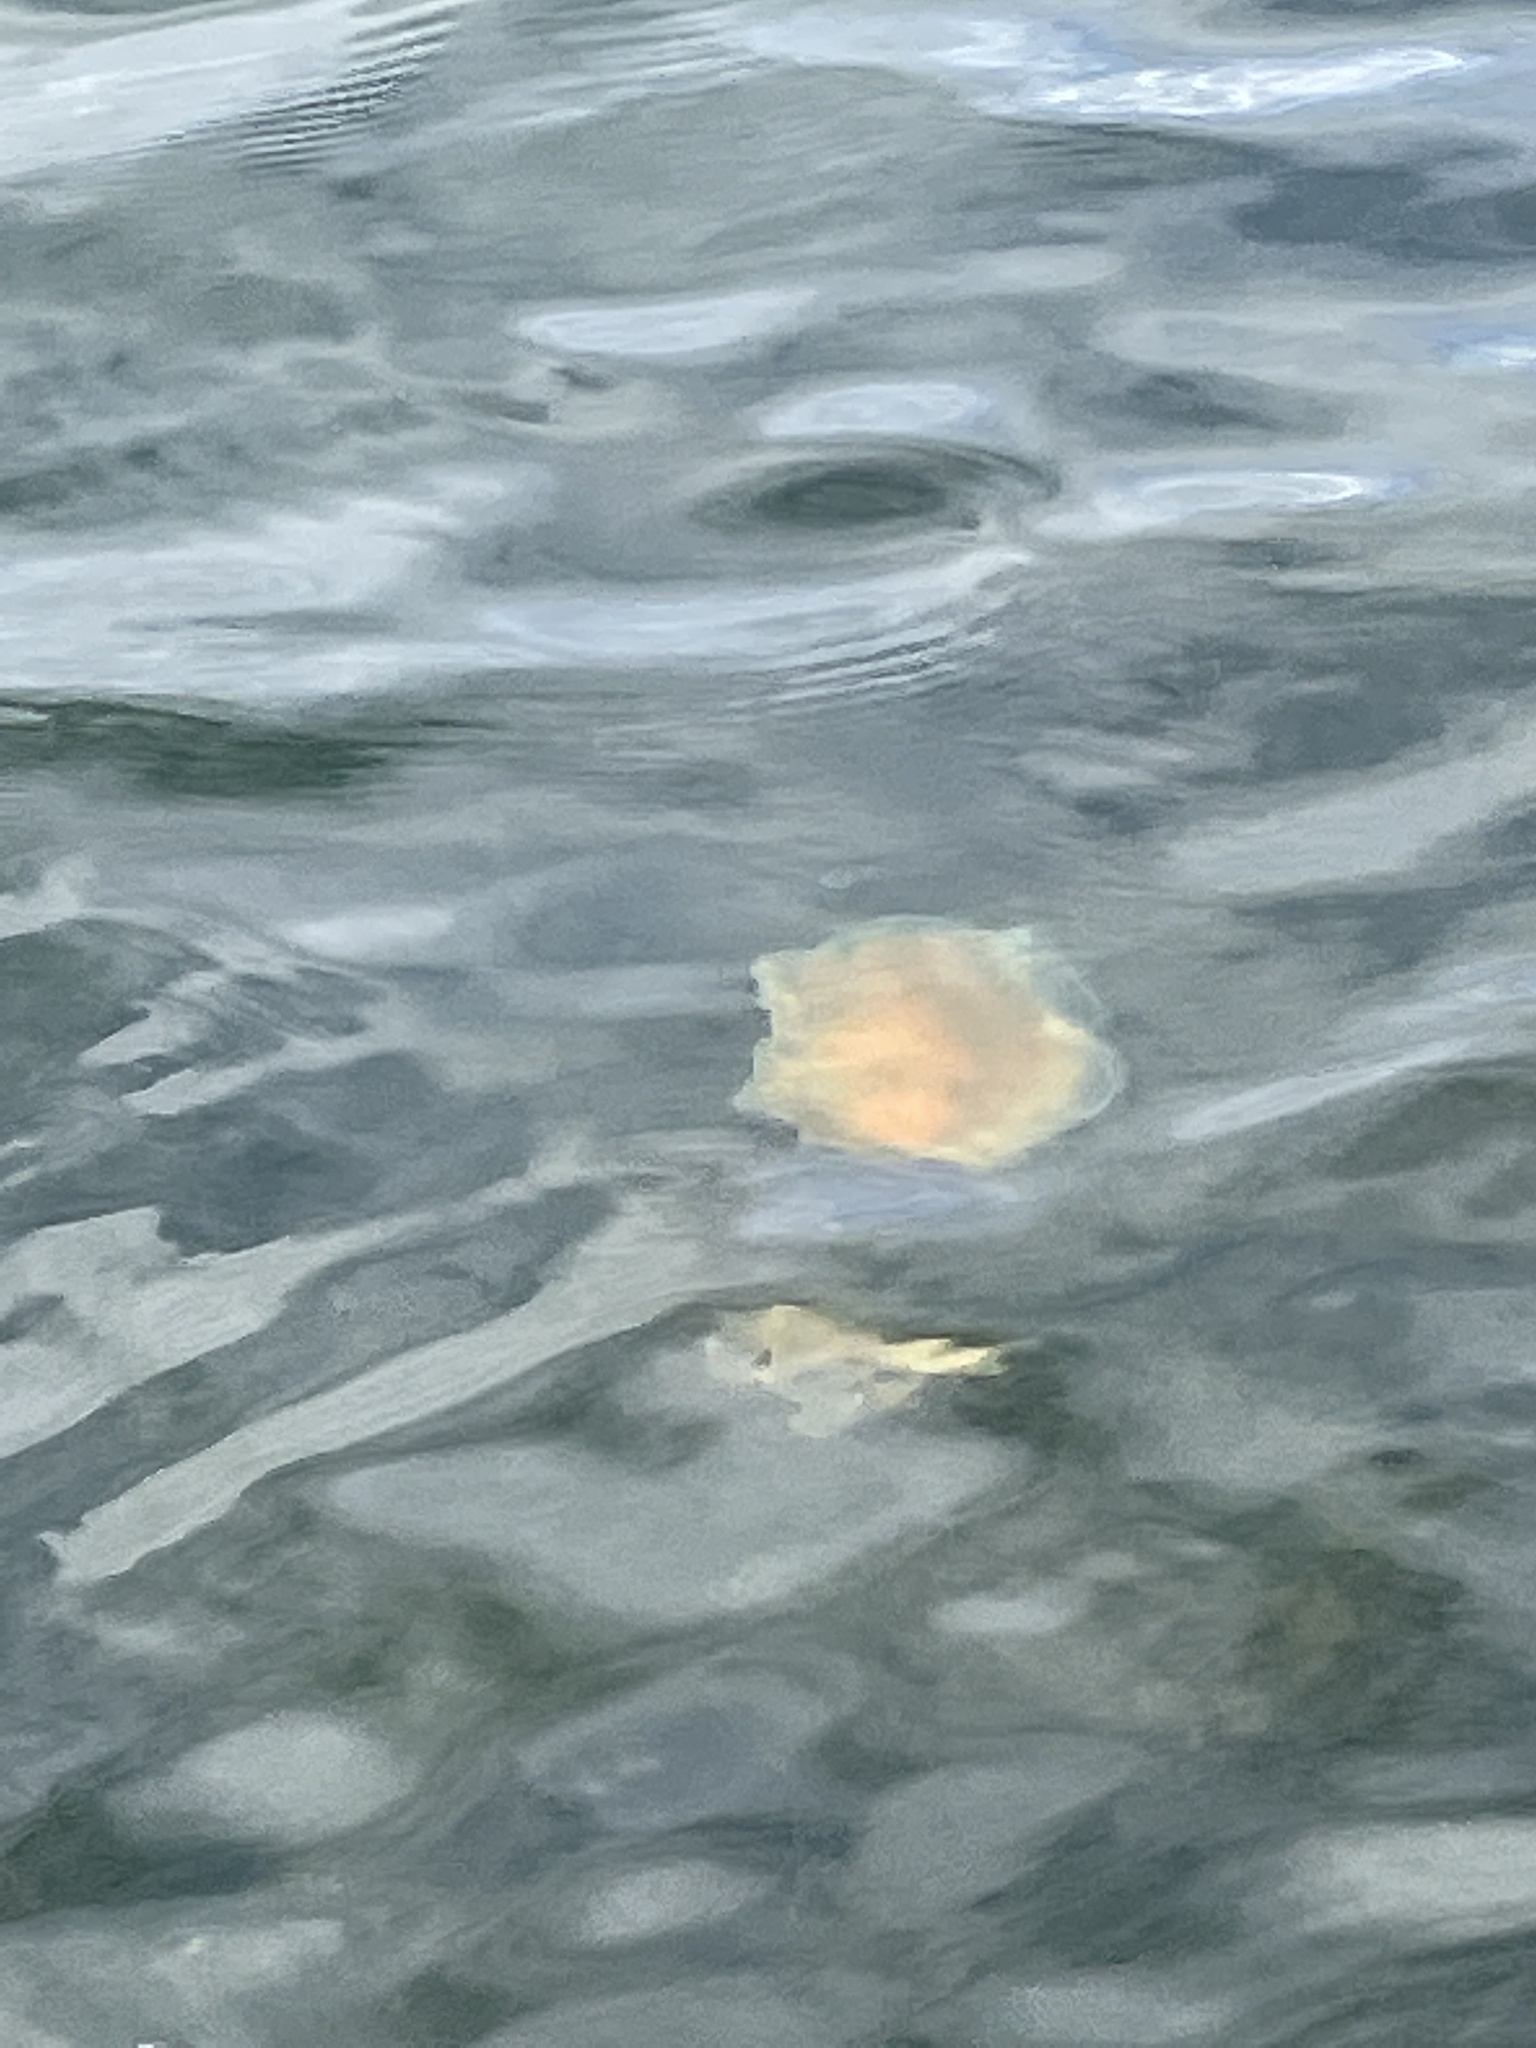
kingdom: Animalia
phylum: Cnidaria
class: Scyphozoa
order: Semaeostomeae
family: Cyaneidae
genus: Cyanea
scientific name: Cyanea capillata
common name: Lion's mane jellyfish
